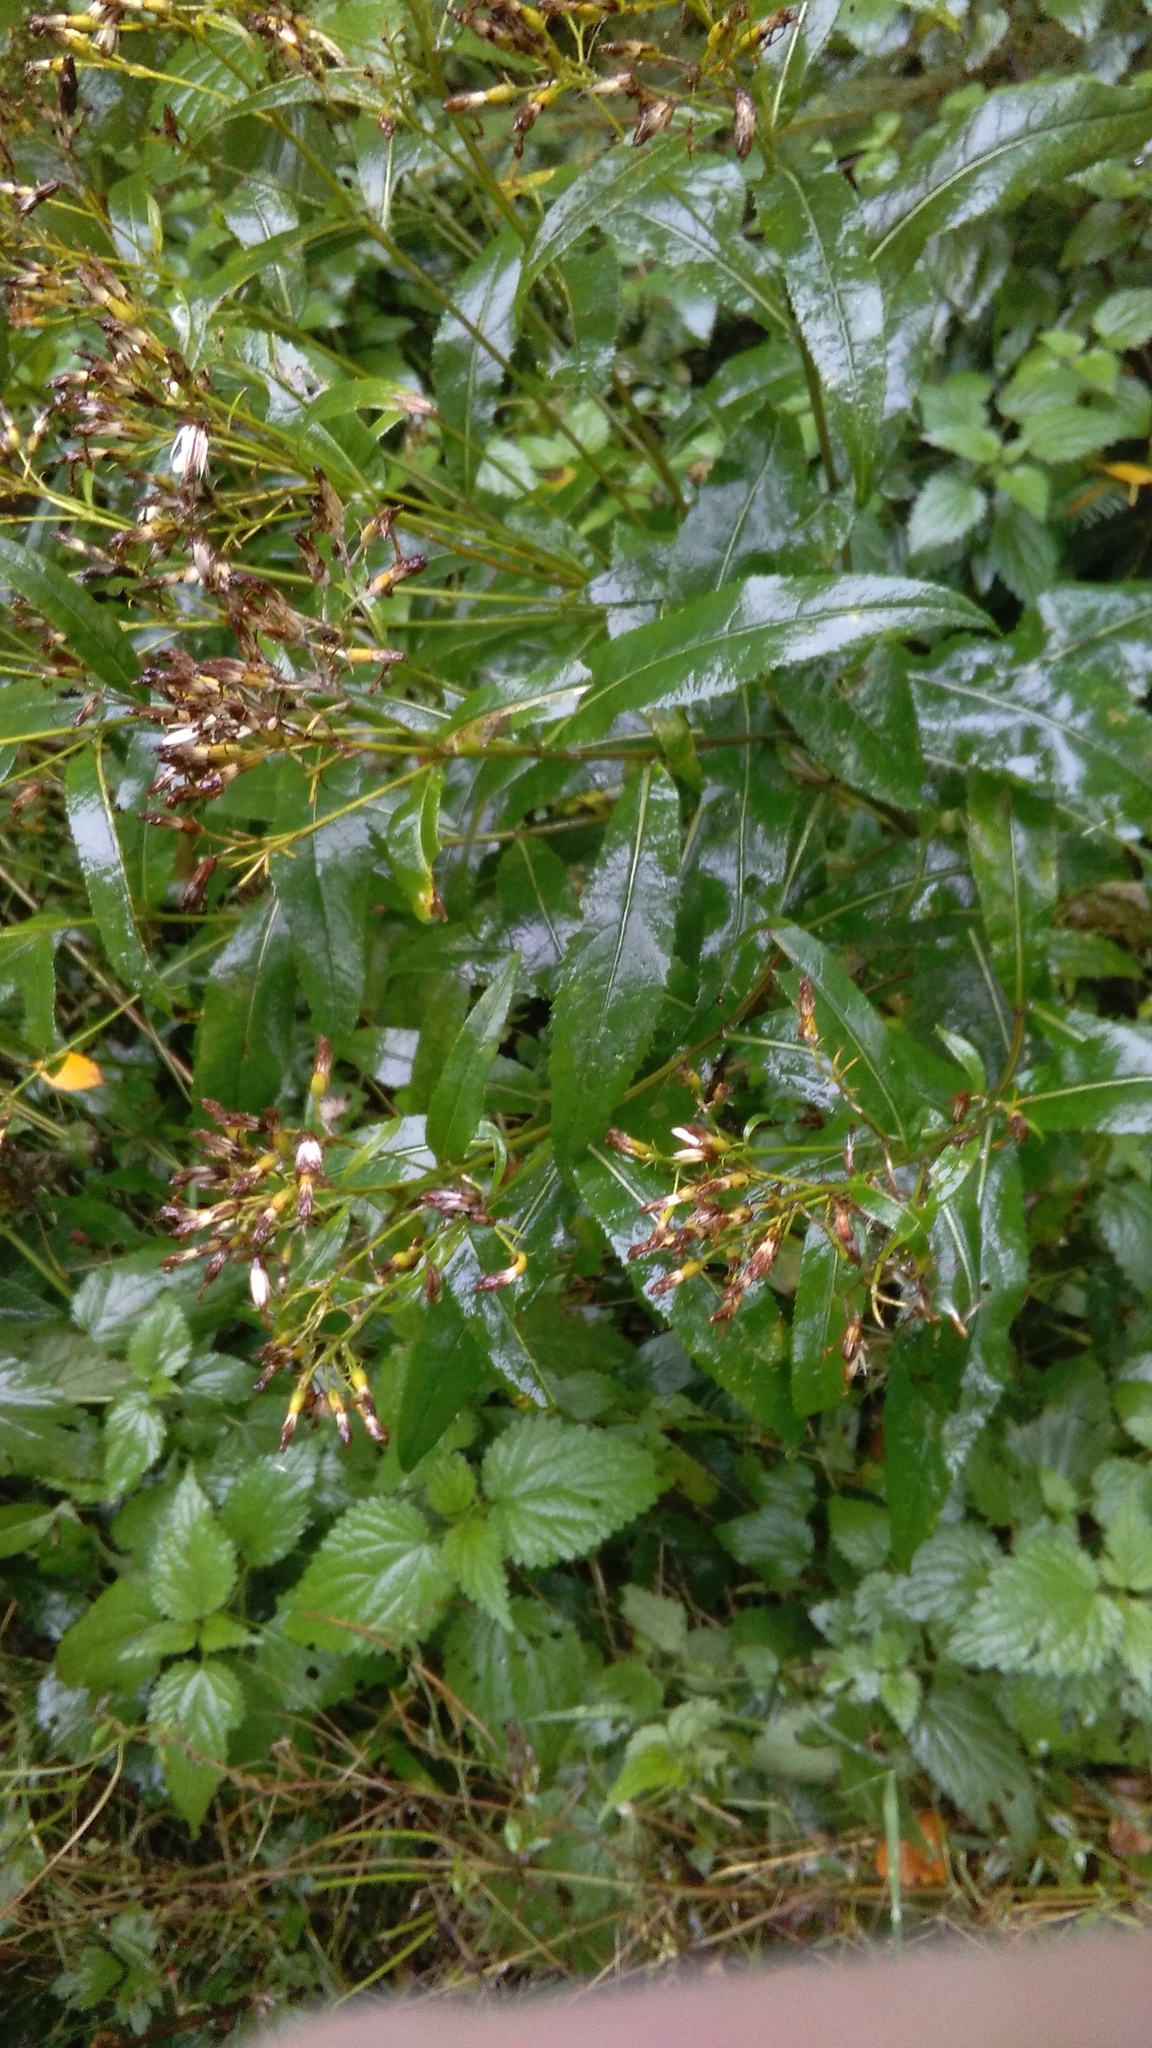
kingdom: Plantae
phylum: Tracheophyta
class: Magnoliopsida
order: Asterales
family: Asteraceae
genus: Senecio
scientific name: Senecio ovatus
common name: Wood ragwort
